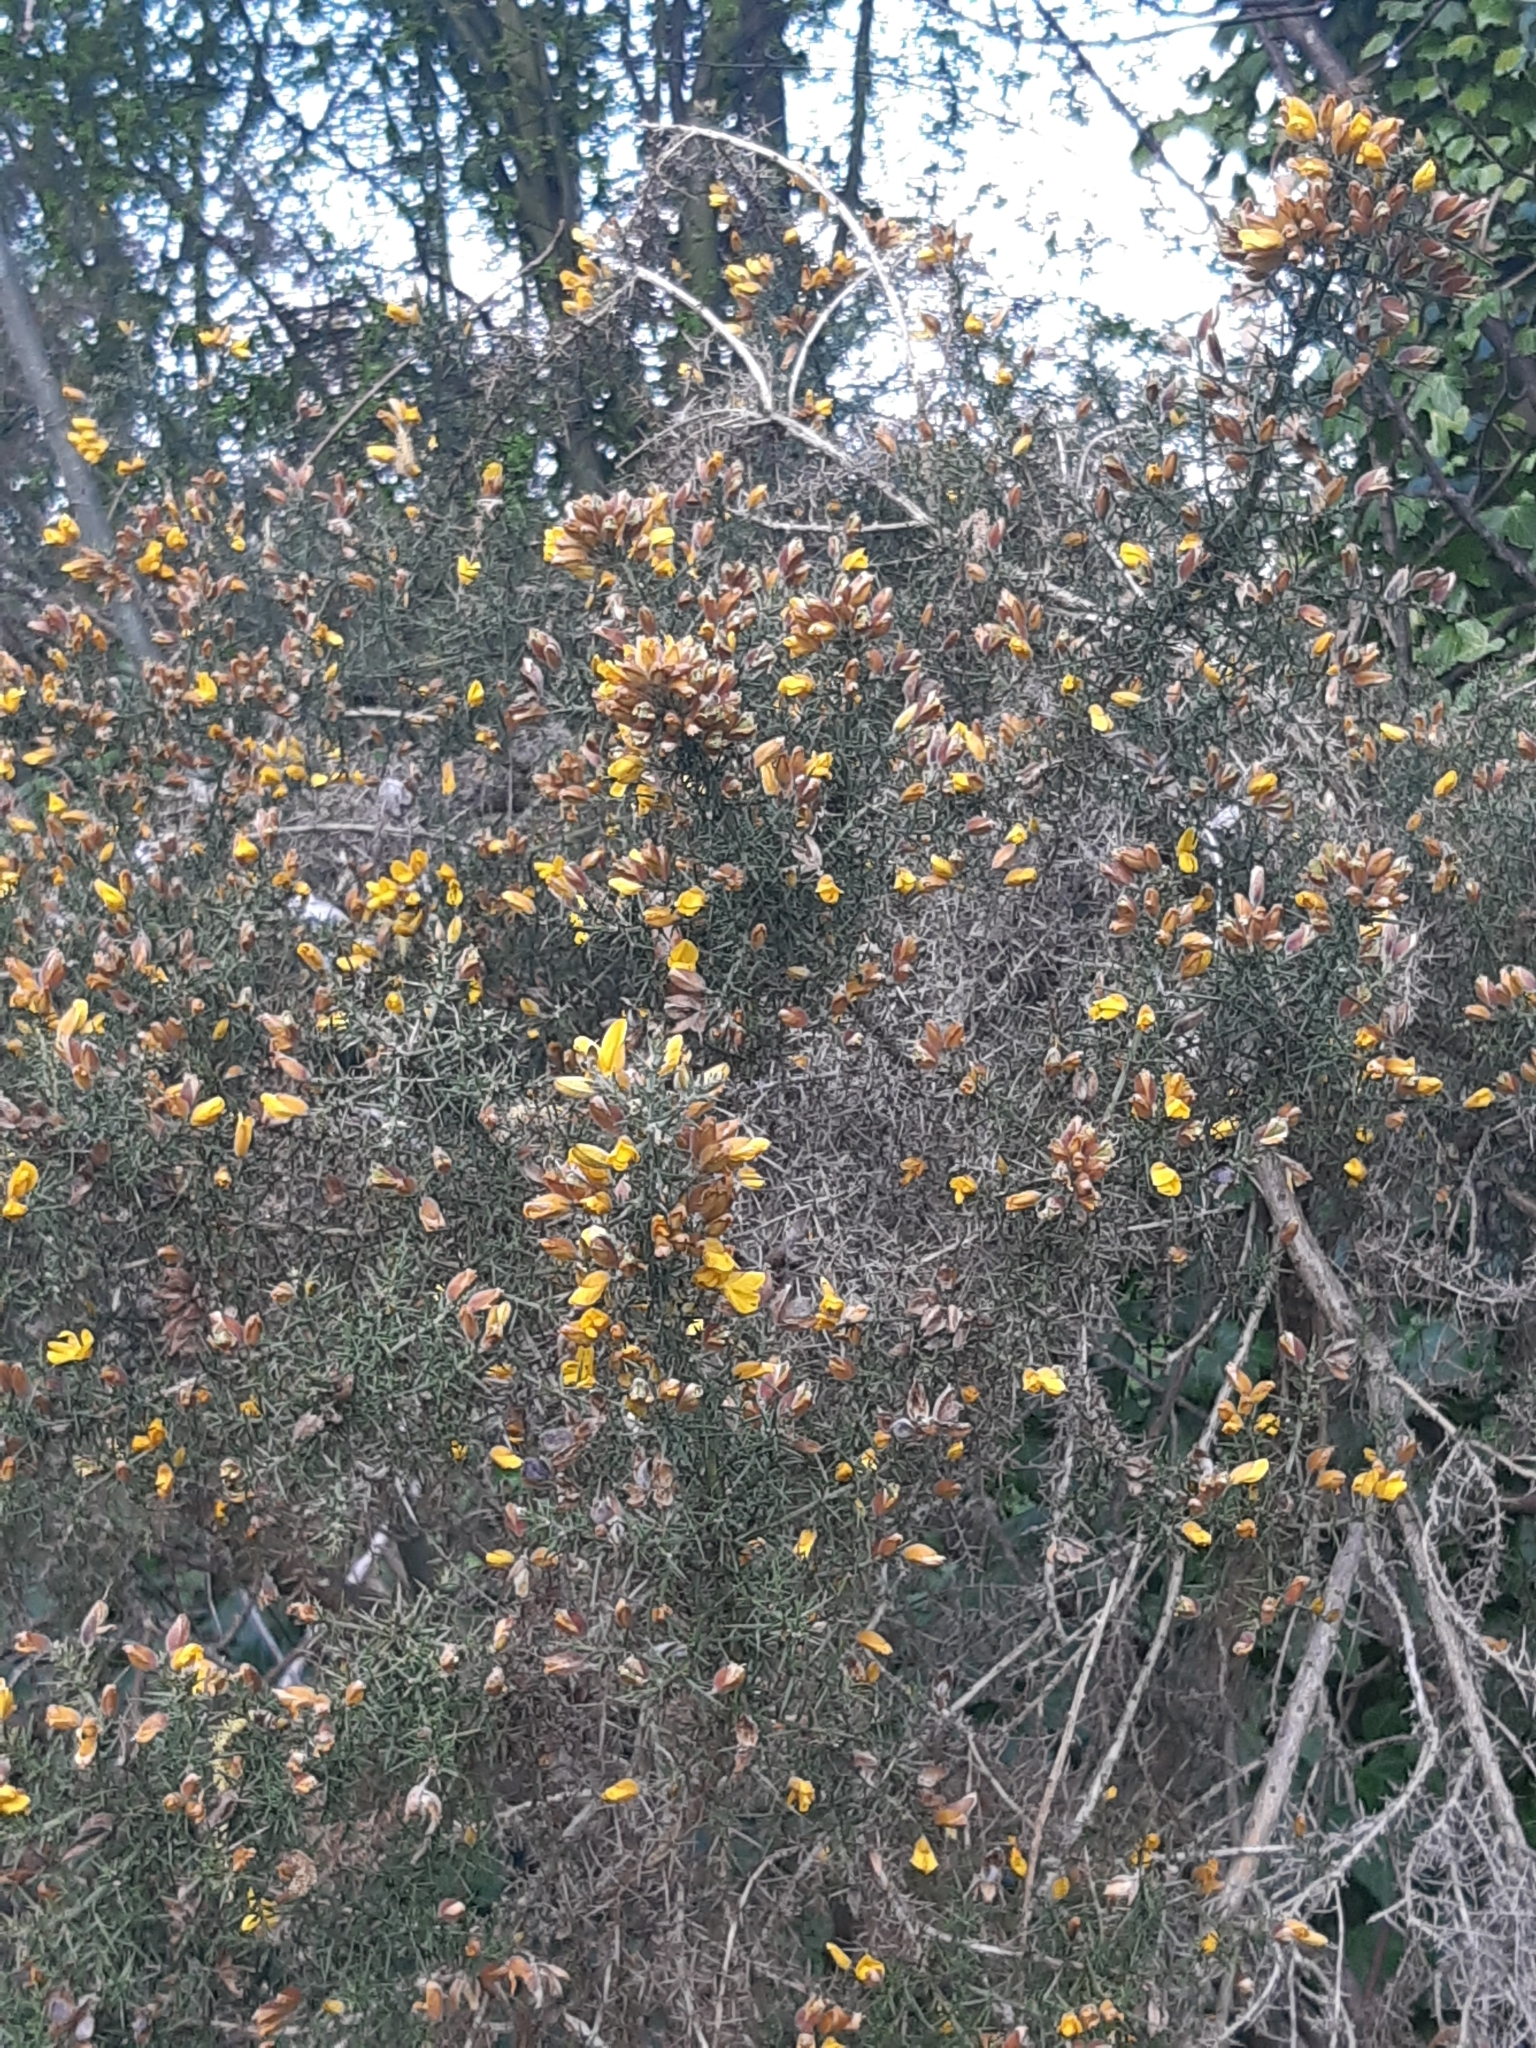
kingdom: Plantae
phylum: Tracheophyta
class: Magnoliopsida
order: Fabales
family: Fabaceae
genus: Ulex
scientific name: Ulex europaeus
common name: Common gorse
